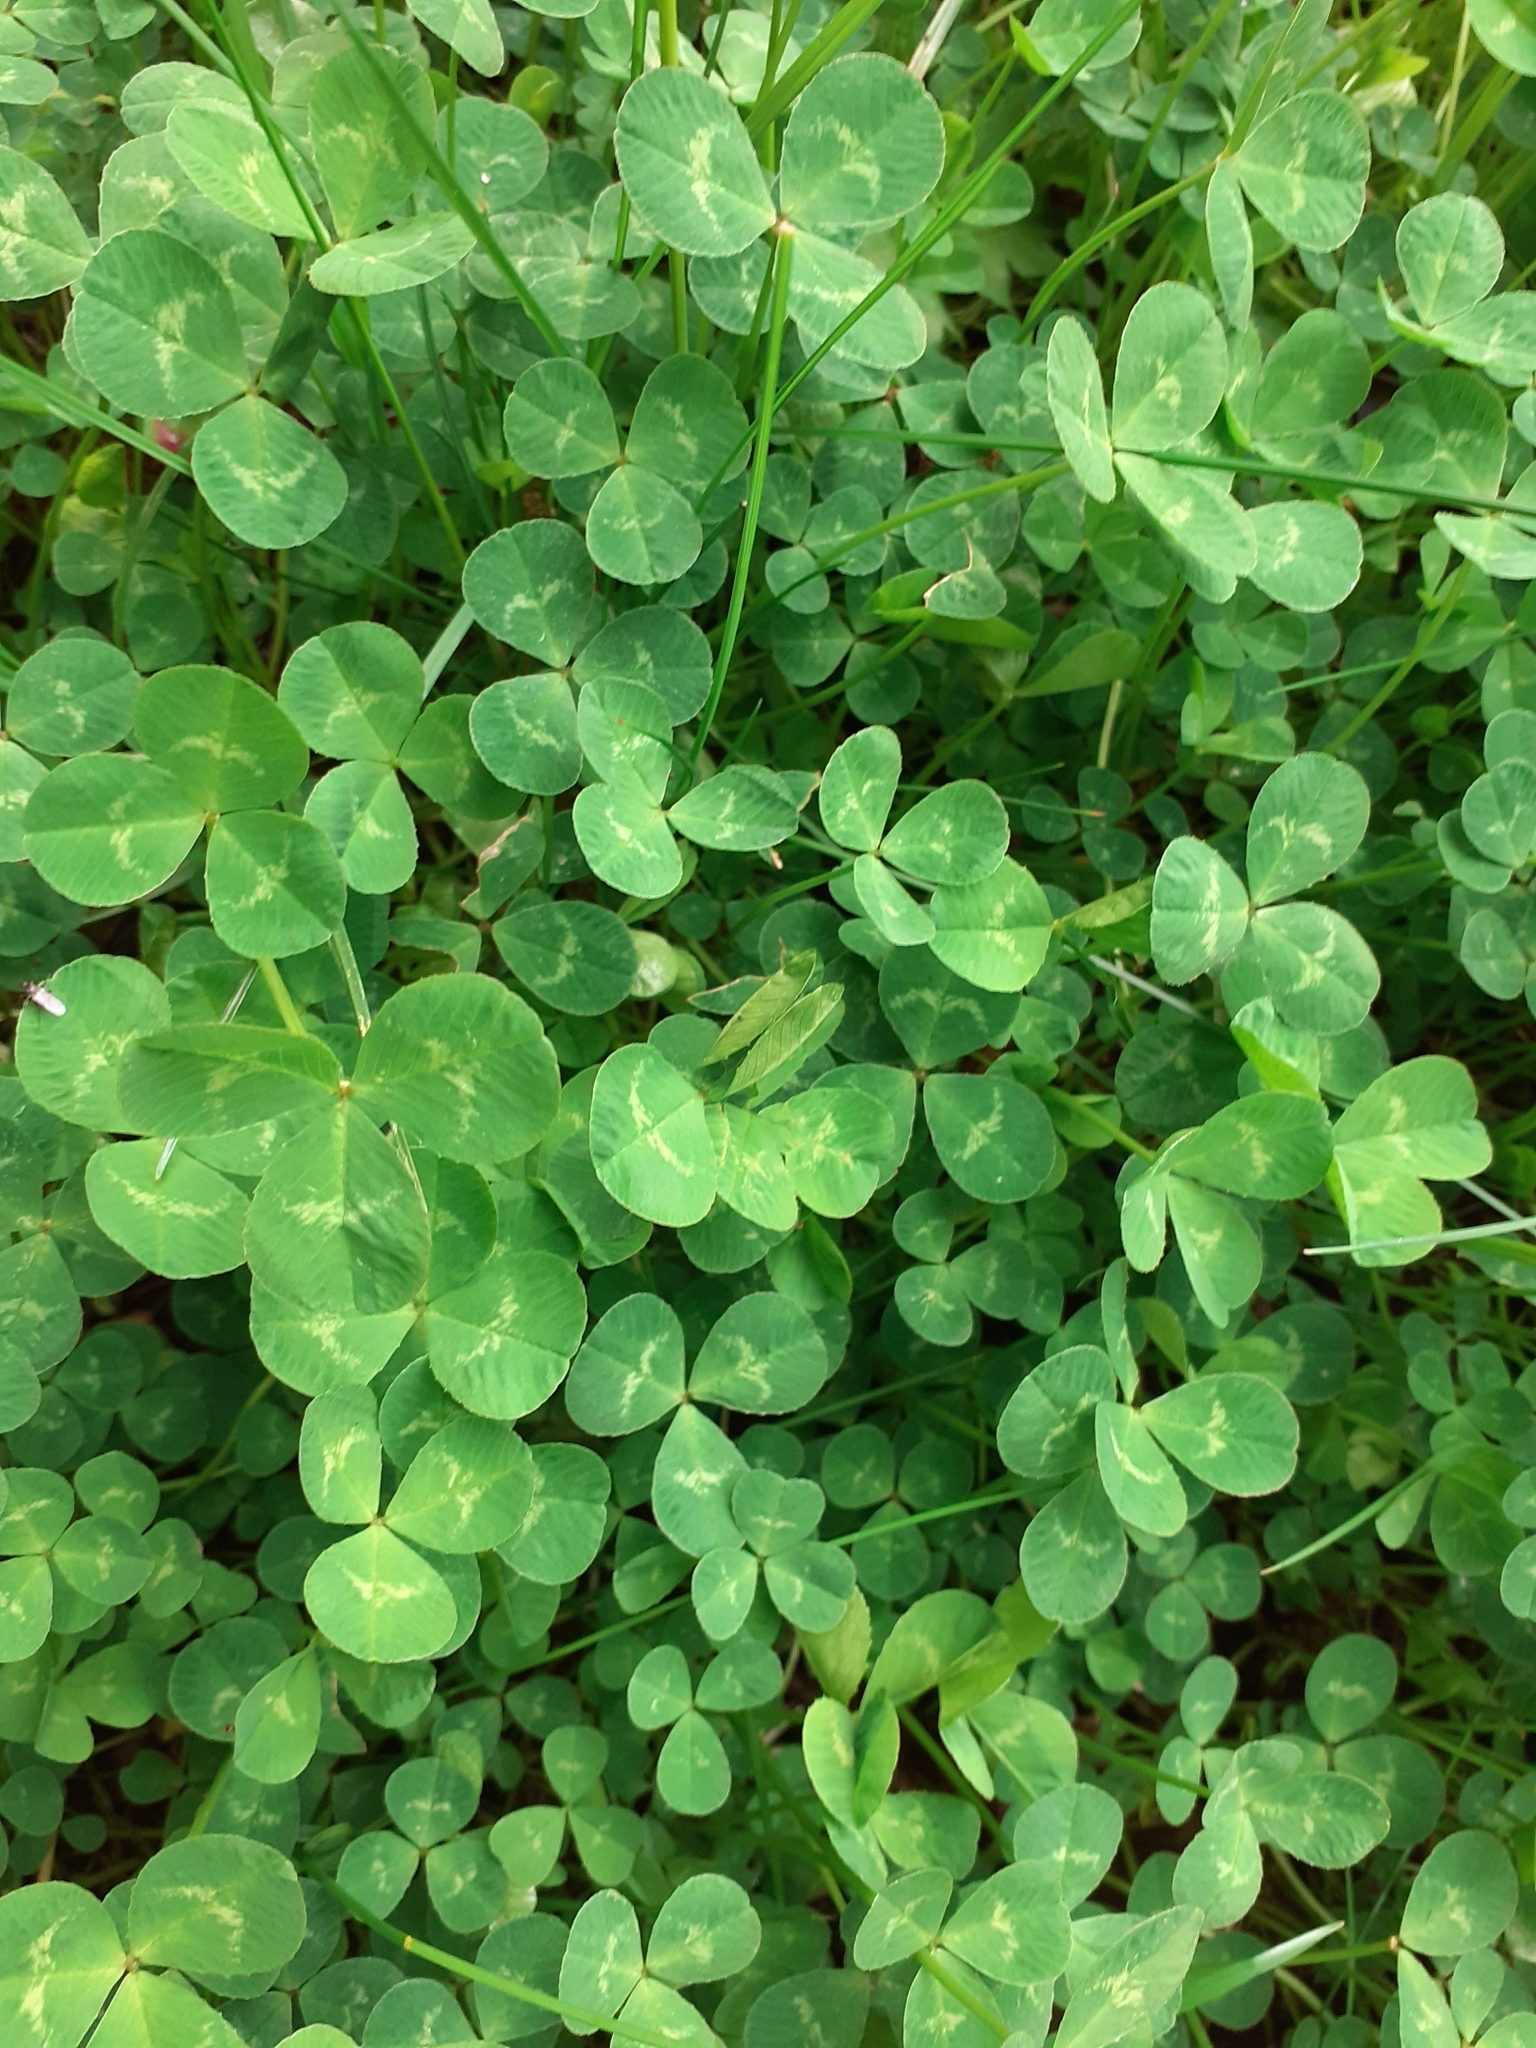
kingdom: Plantae
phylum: Tracheophyta
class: Magnoliopsida
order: Fabales
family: Fabaceae
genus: Trifolium
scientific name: Trifolium repens
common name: White clover
